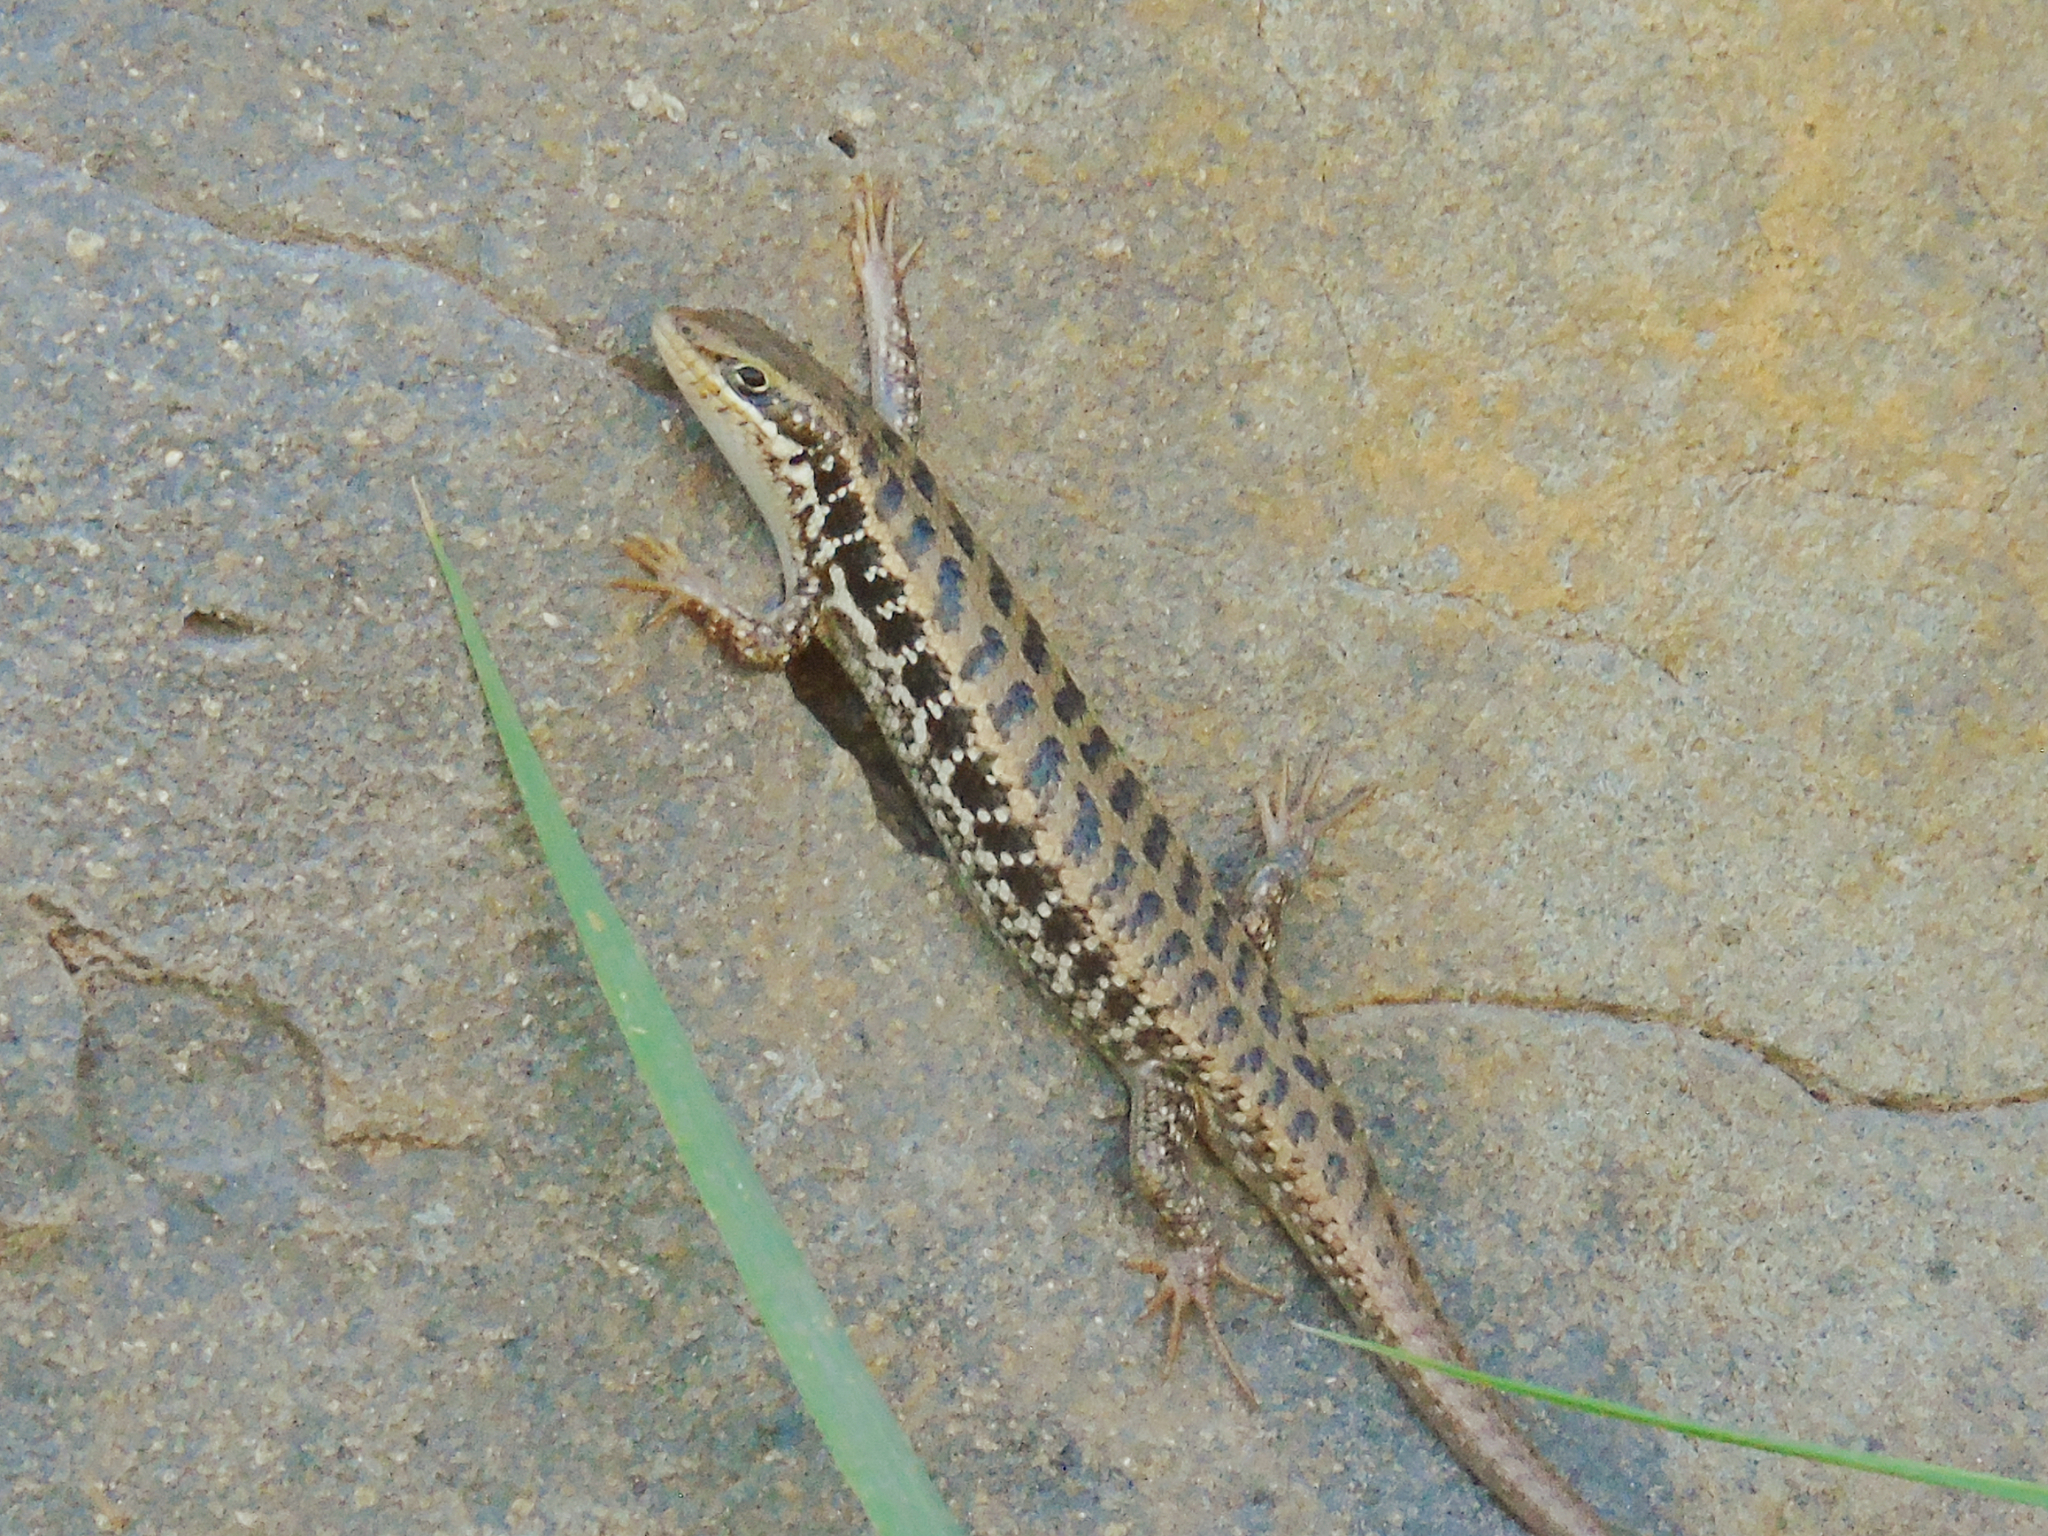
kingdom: Animalia
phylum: Chordata
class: Squamata
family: Scincidae
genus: Heremites
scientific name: Heremites auratus
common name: Golden grass mabuya
